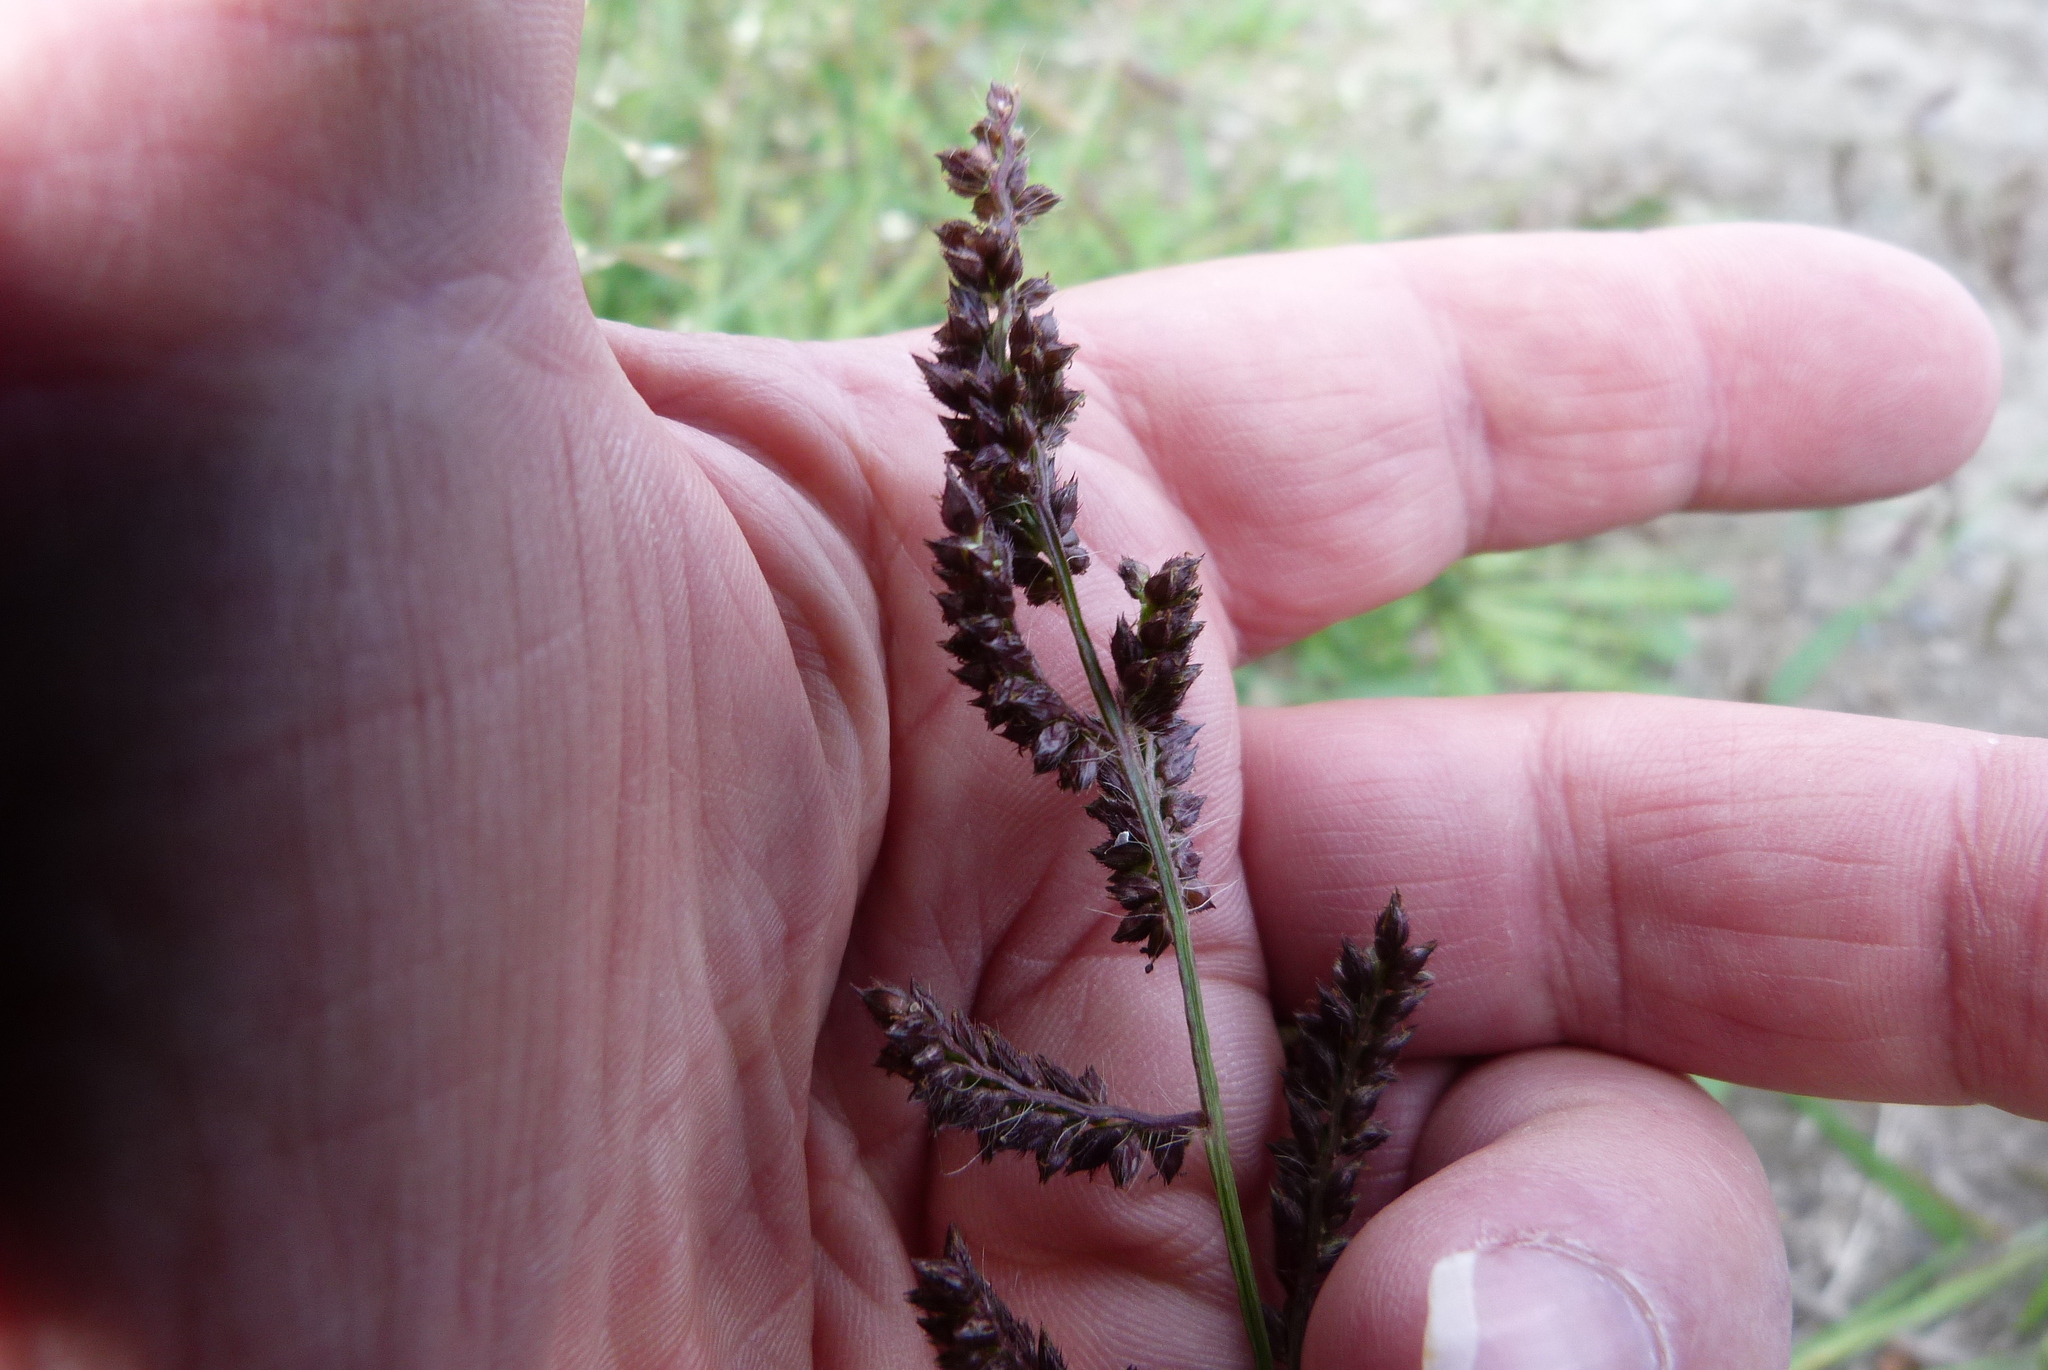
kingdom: Plantae
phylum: Tracheophyta
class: Liliopsida
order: Poales
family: Poaceae
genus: Echinochloa
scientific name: Echinochloa crus-galli
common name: Cockspur
